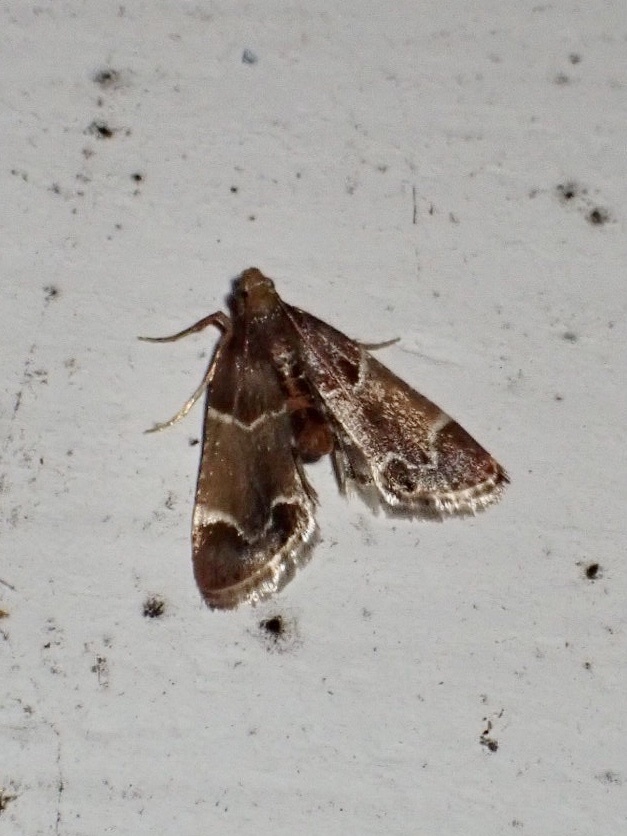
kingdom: Animalia
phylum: Arthropoda
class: Insecta
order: Lepidoptera
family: Pyralidae
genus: Pyralis
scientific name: Pyralis farinalis
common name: Meal moth
